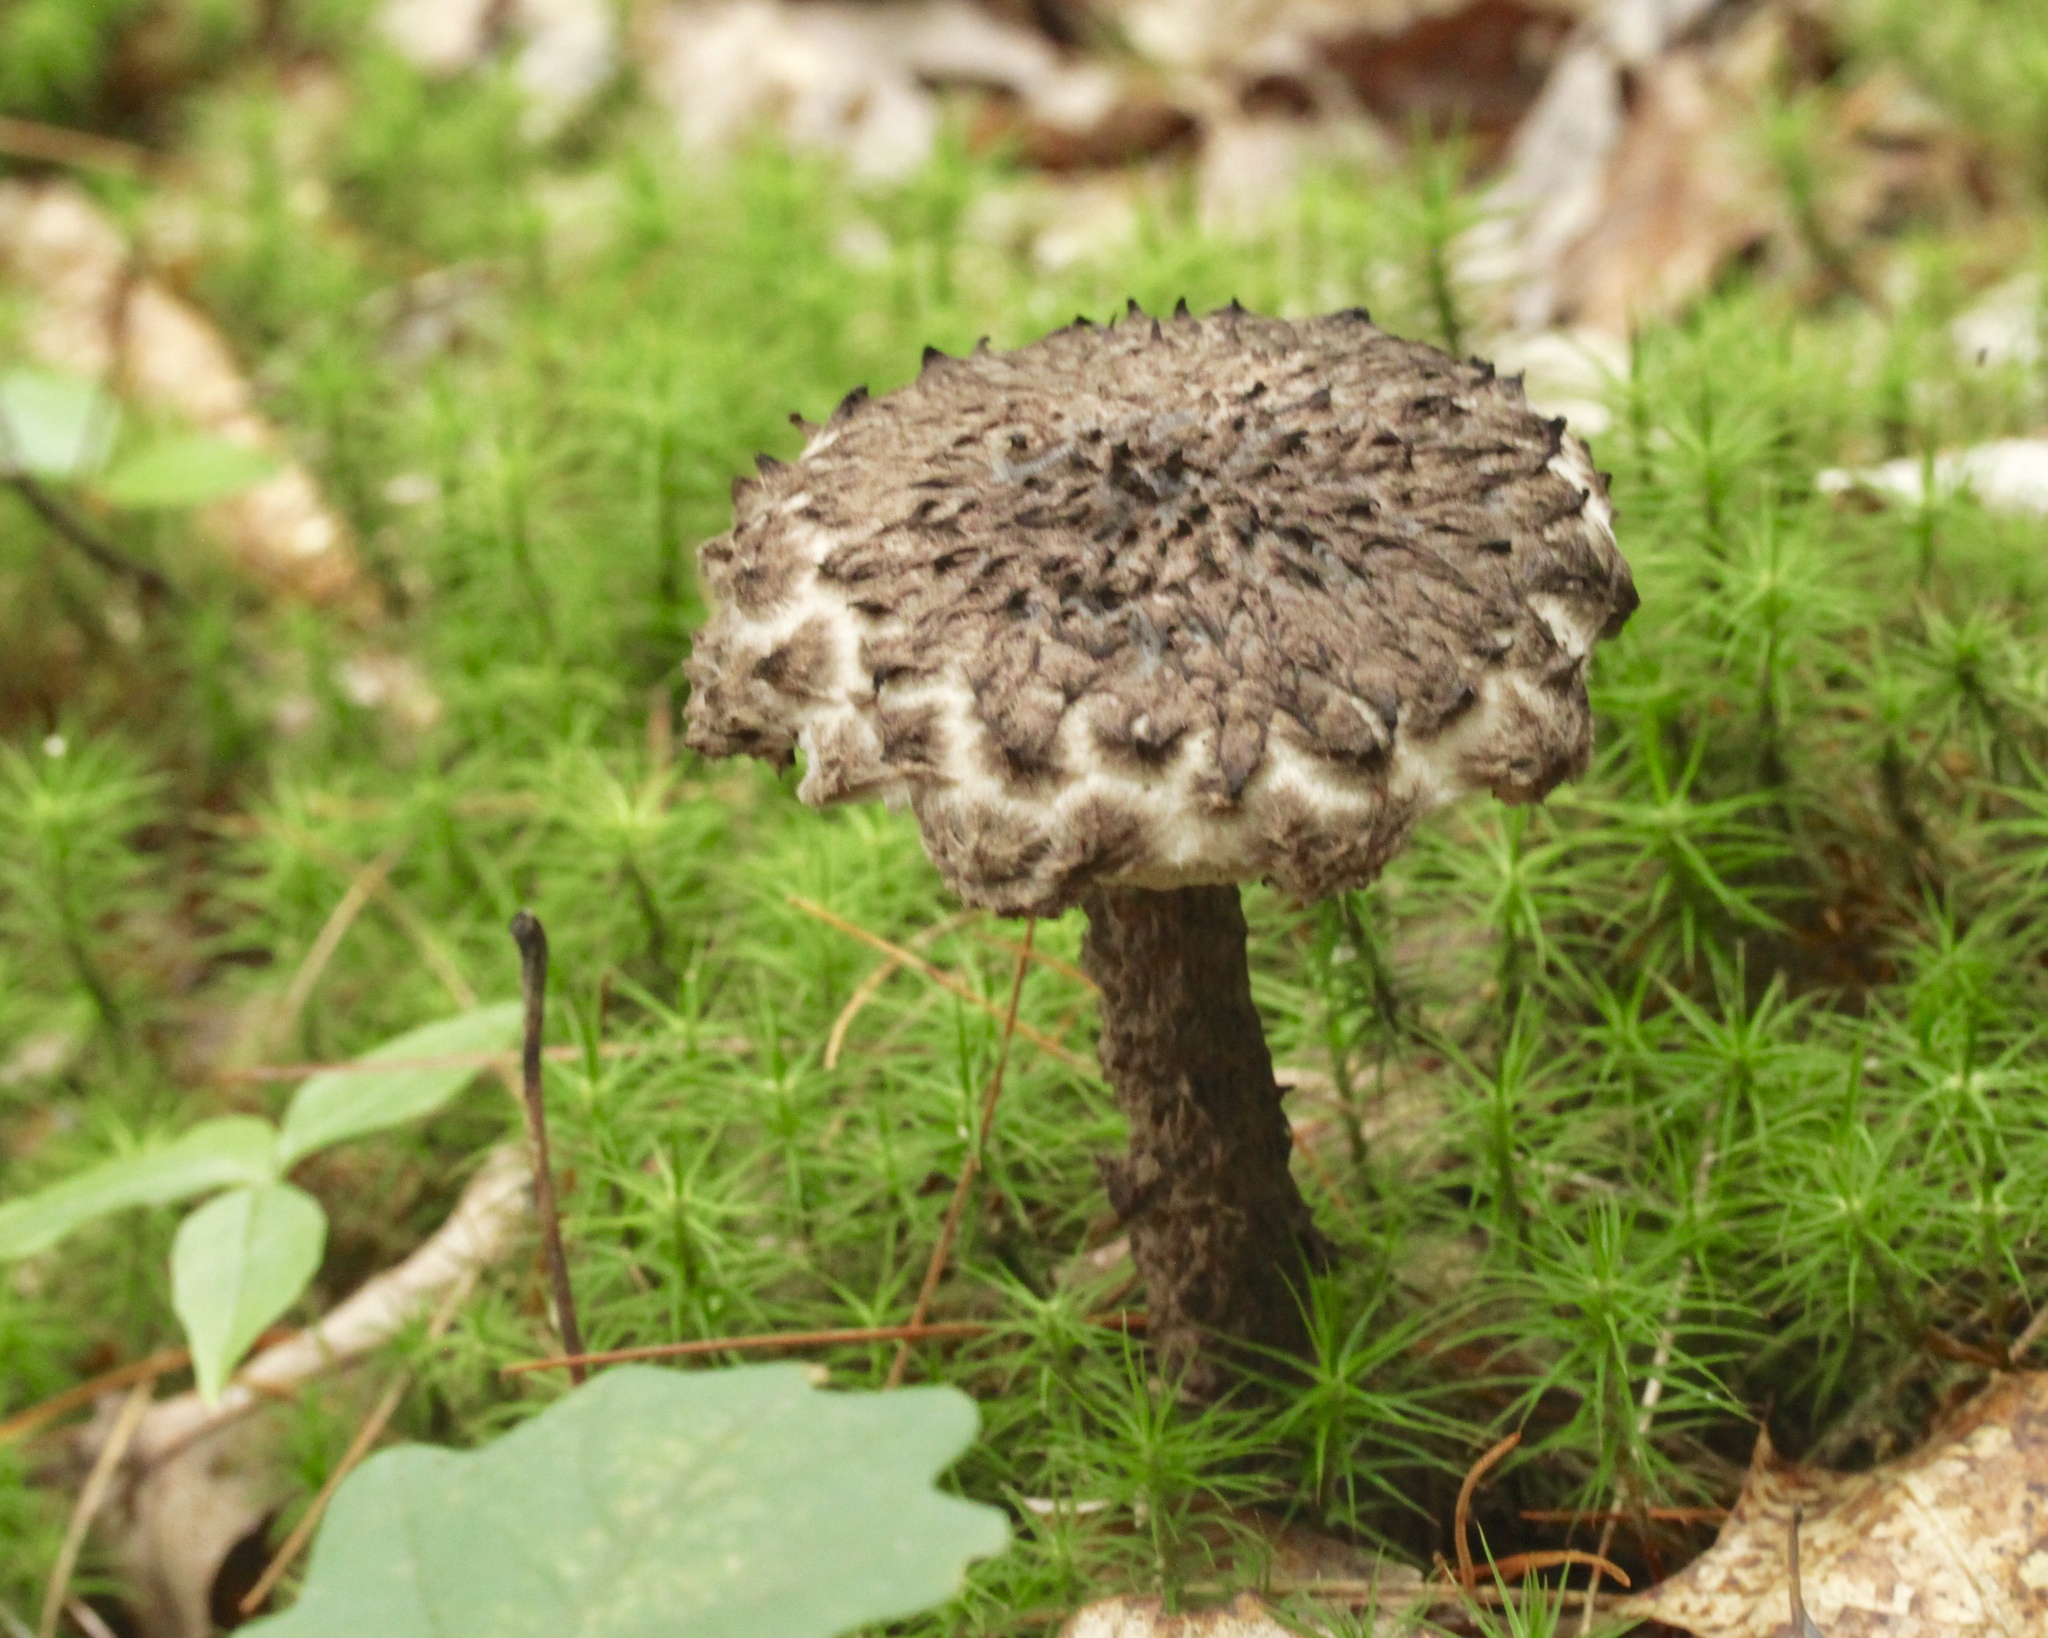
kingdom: Fungi
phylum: Basidiomycota
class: Agaricomycetes
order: Boletales
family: Boletaceae
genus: Strobilomyces
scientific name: Strobilomyces strobilaceus
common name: Old man of the woods
